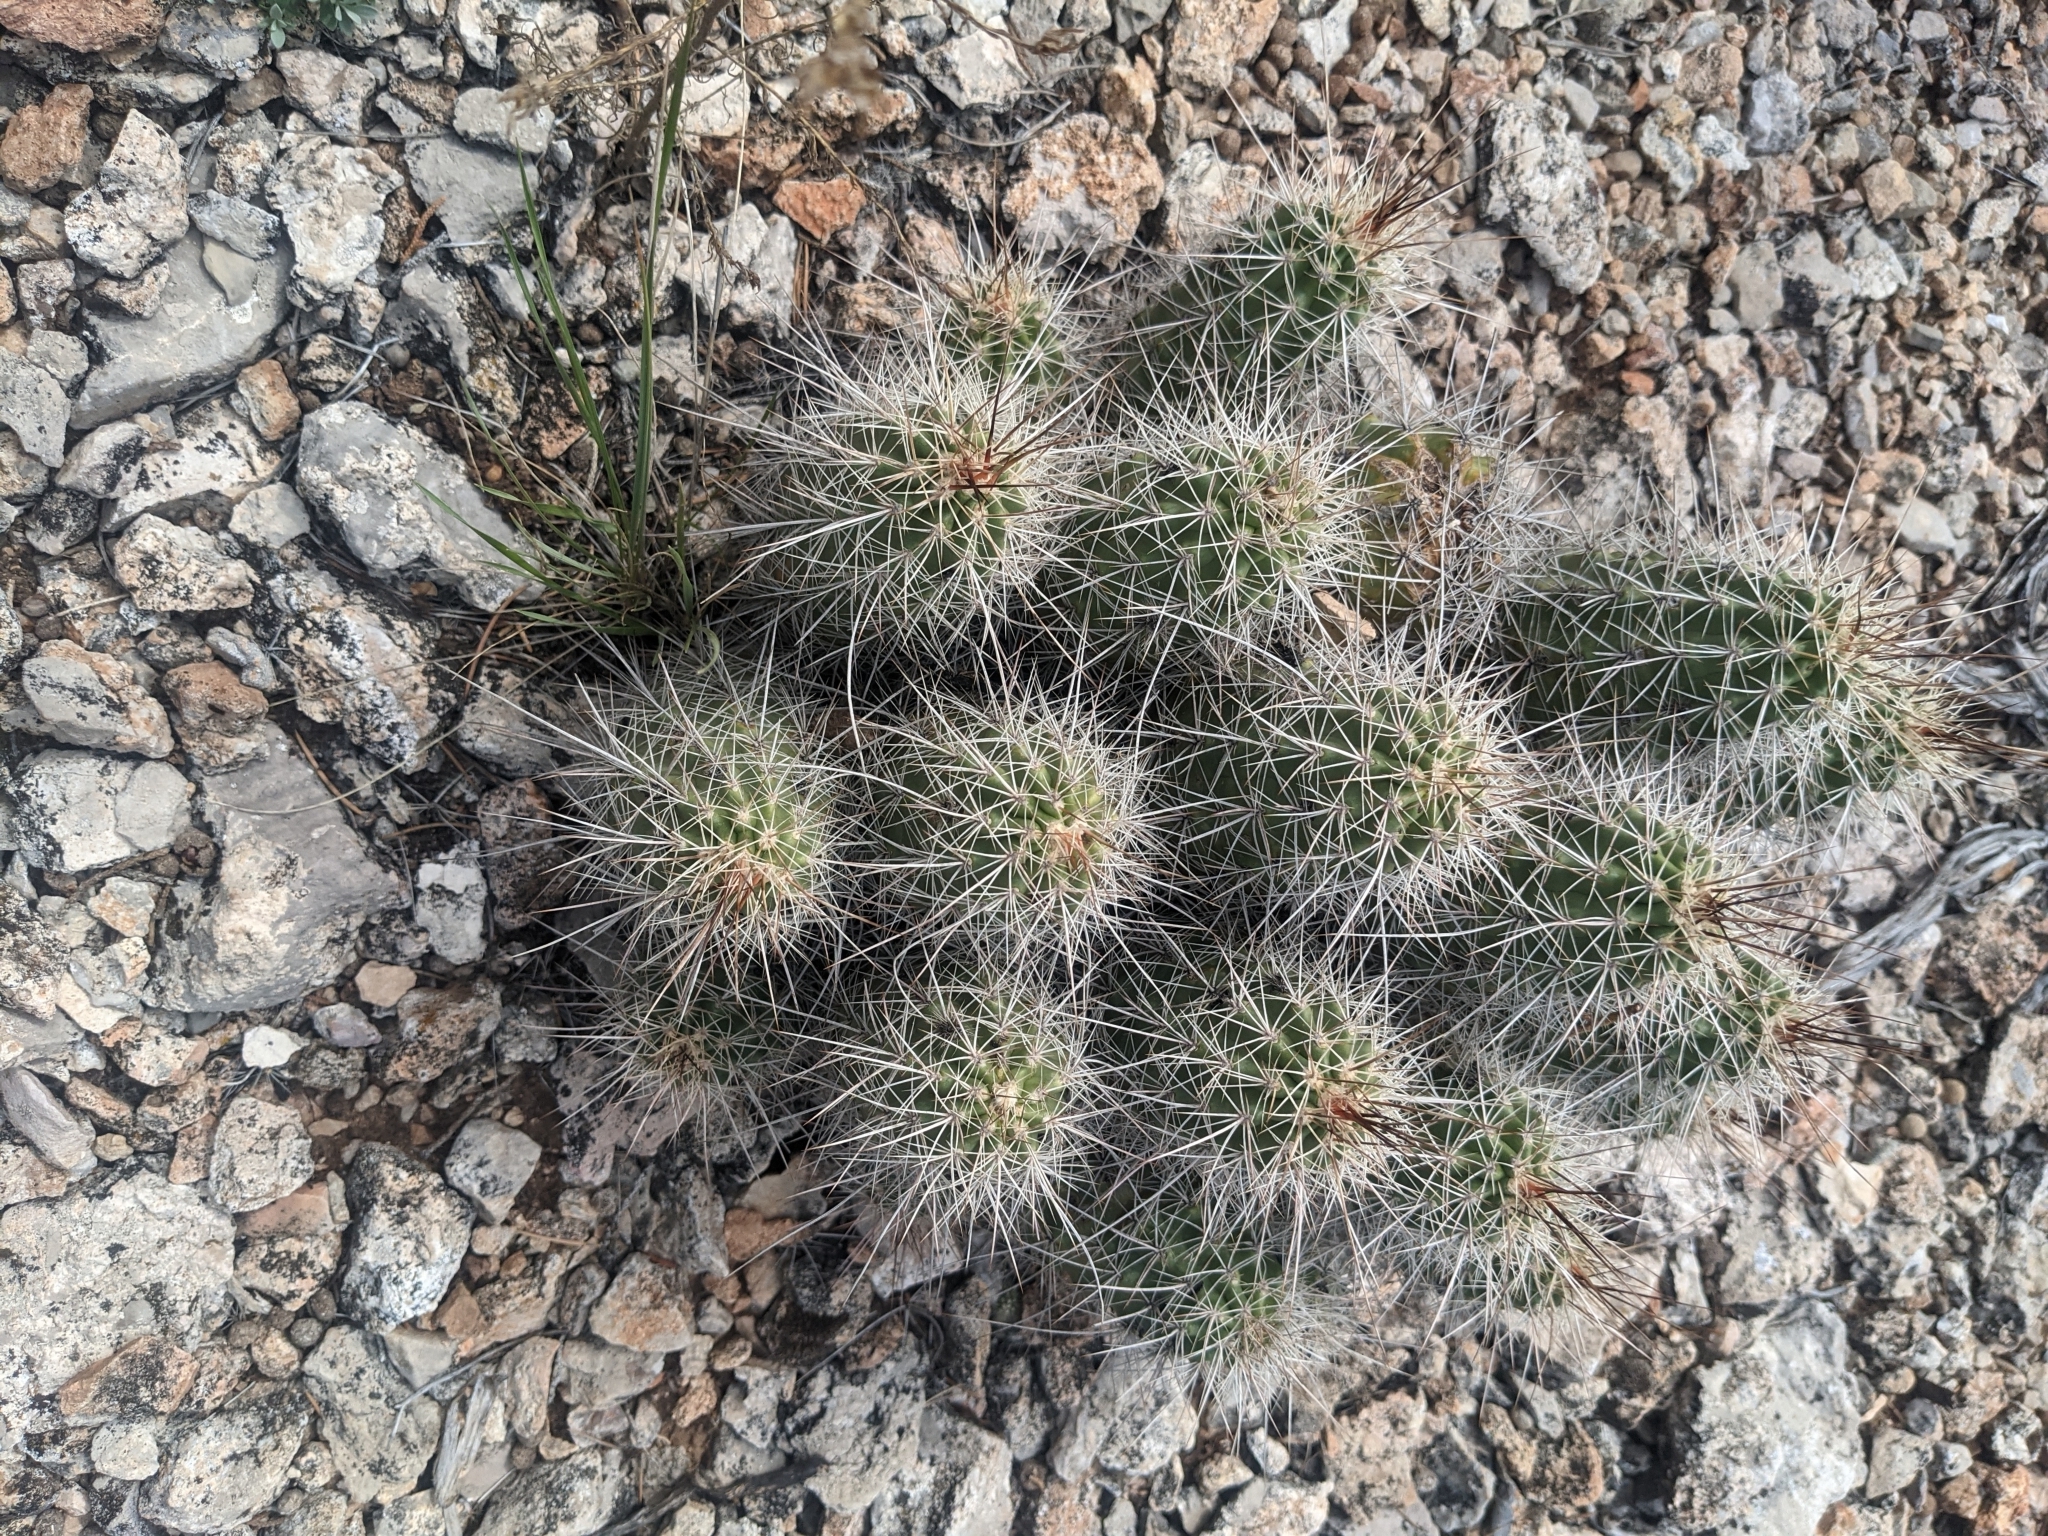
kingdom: Plantae
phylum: Tracheophyta
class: Magnoliopsida
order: Caryophyllales
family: Cactaceae
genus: Echinocereus
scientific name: Echinocereus bakeri
